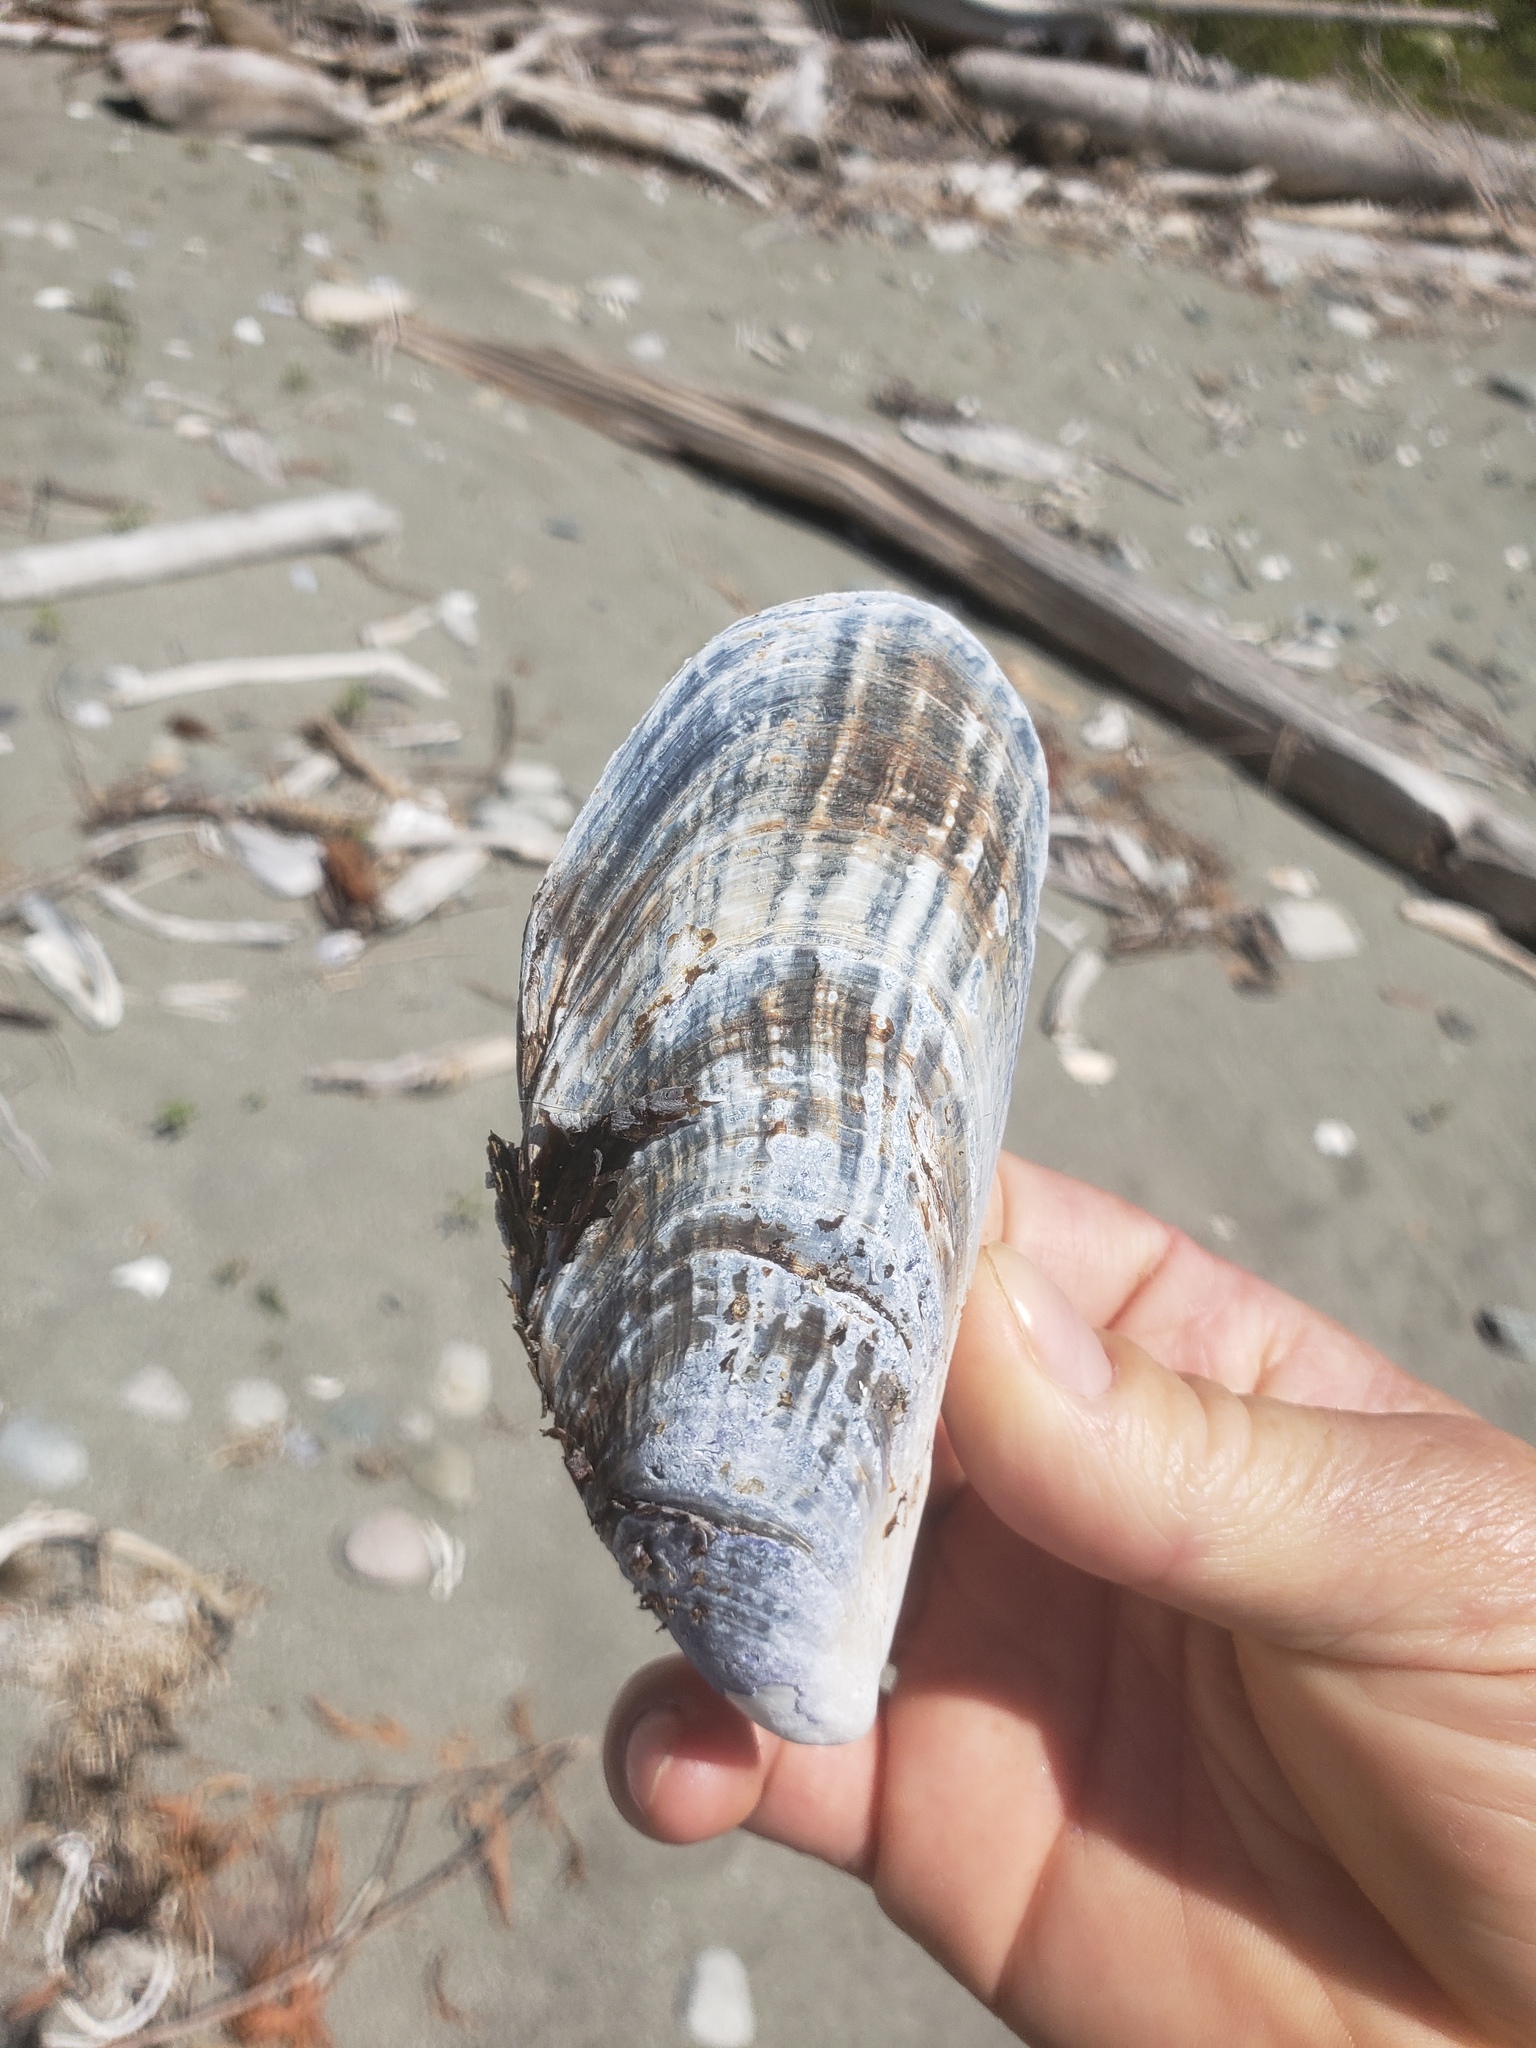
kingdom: Animalia
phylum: Mollusca
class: Bivalvia
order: Mytilida
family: Mytilidae
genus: Mytilus
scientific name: Mytilus californianus
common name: California mussel
